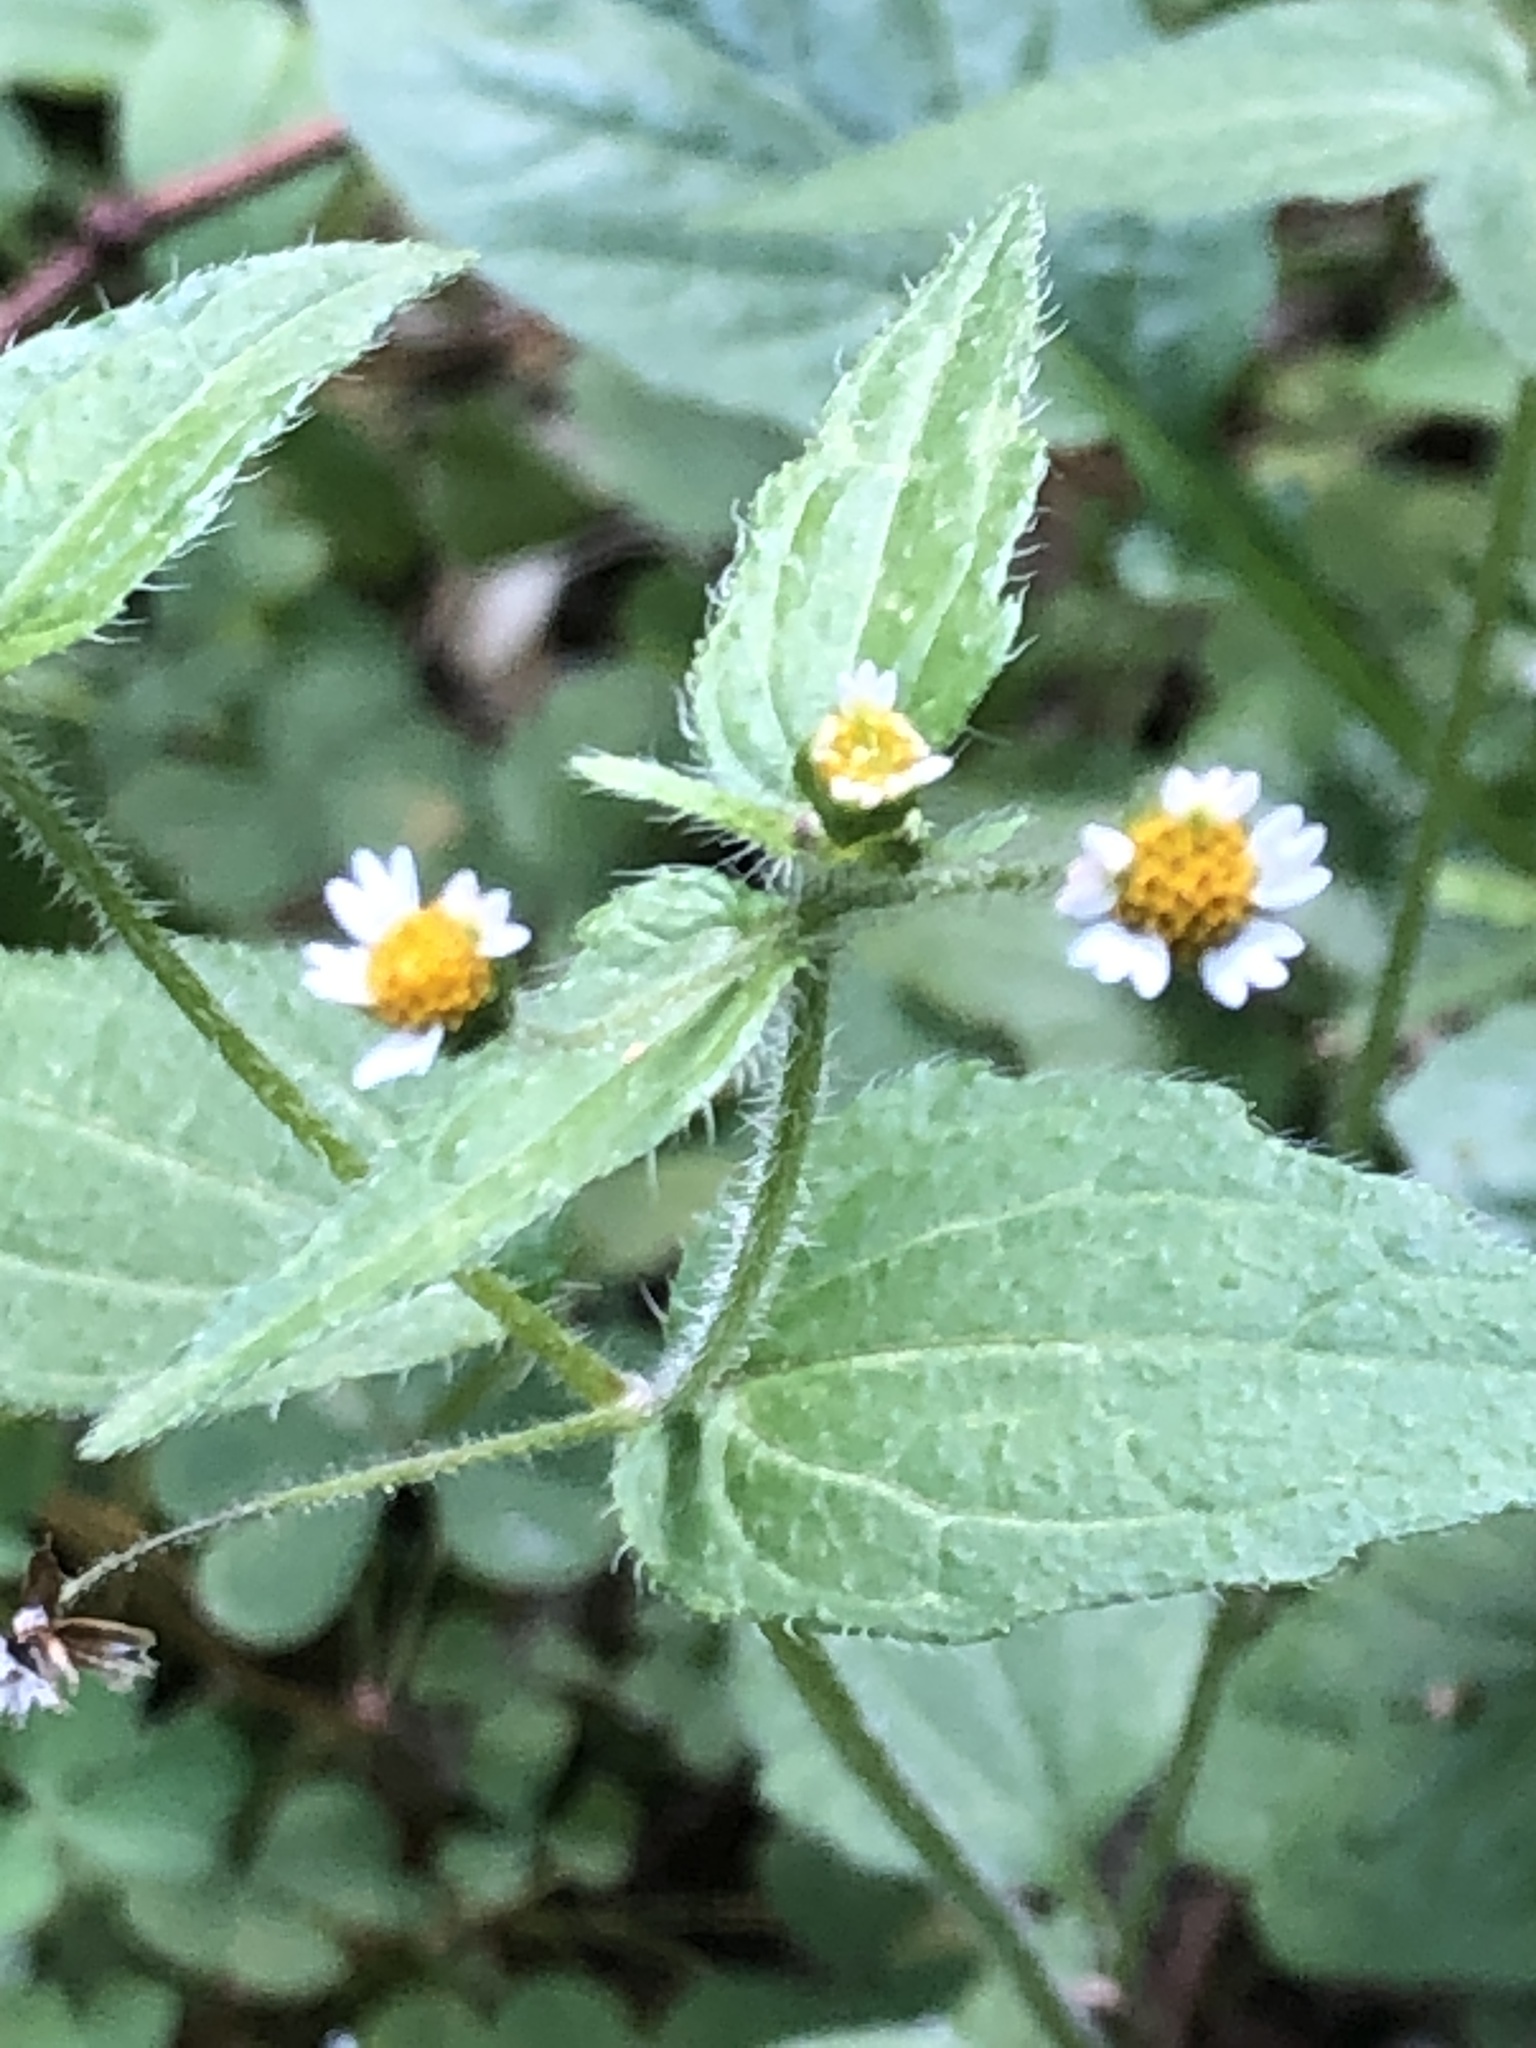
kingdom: Plantae
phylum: Tracheophyta
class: Magnoliopsida
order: Asterales
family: Asteraceae
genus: Galinsoga
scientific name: Galinsoga quadriradiata
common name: Shaggy soldier
